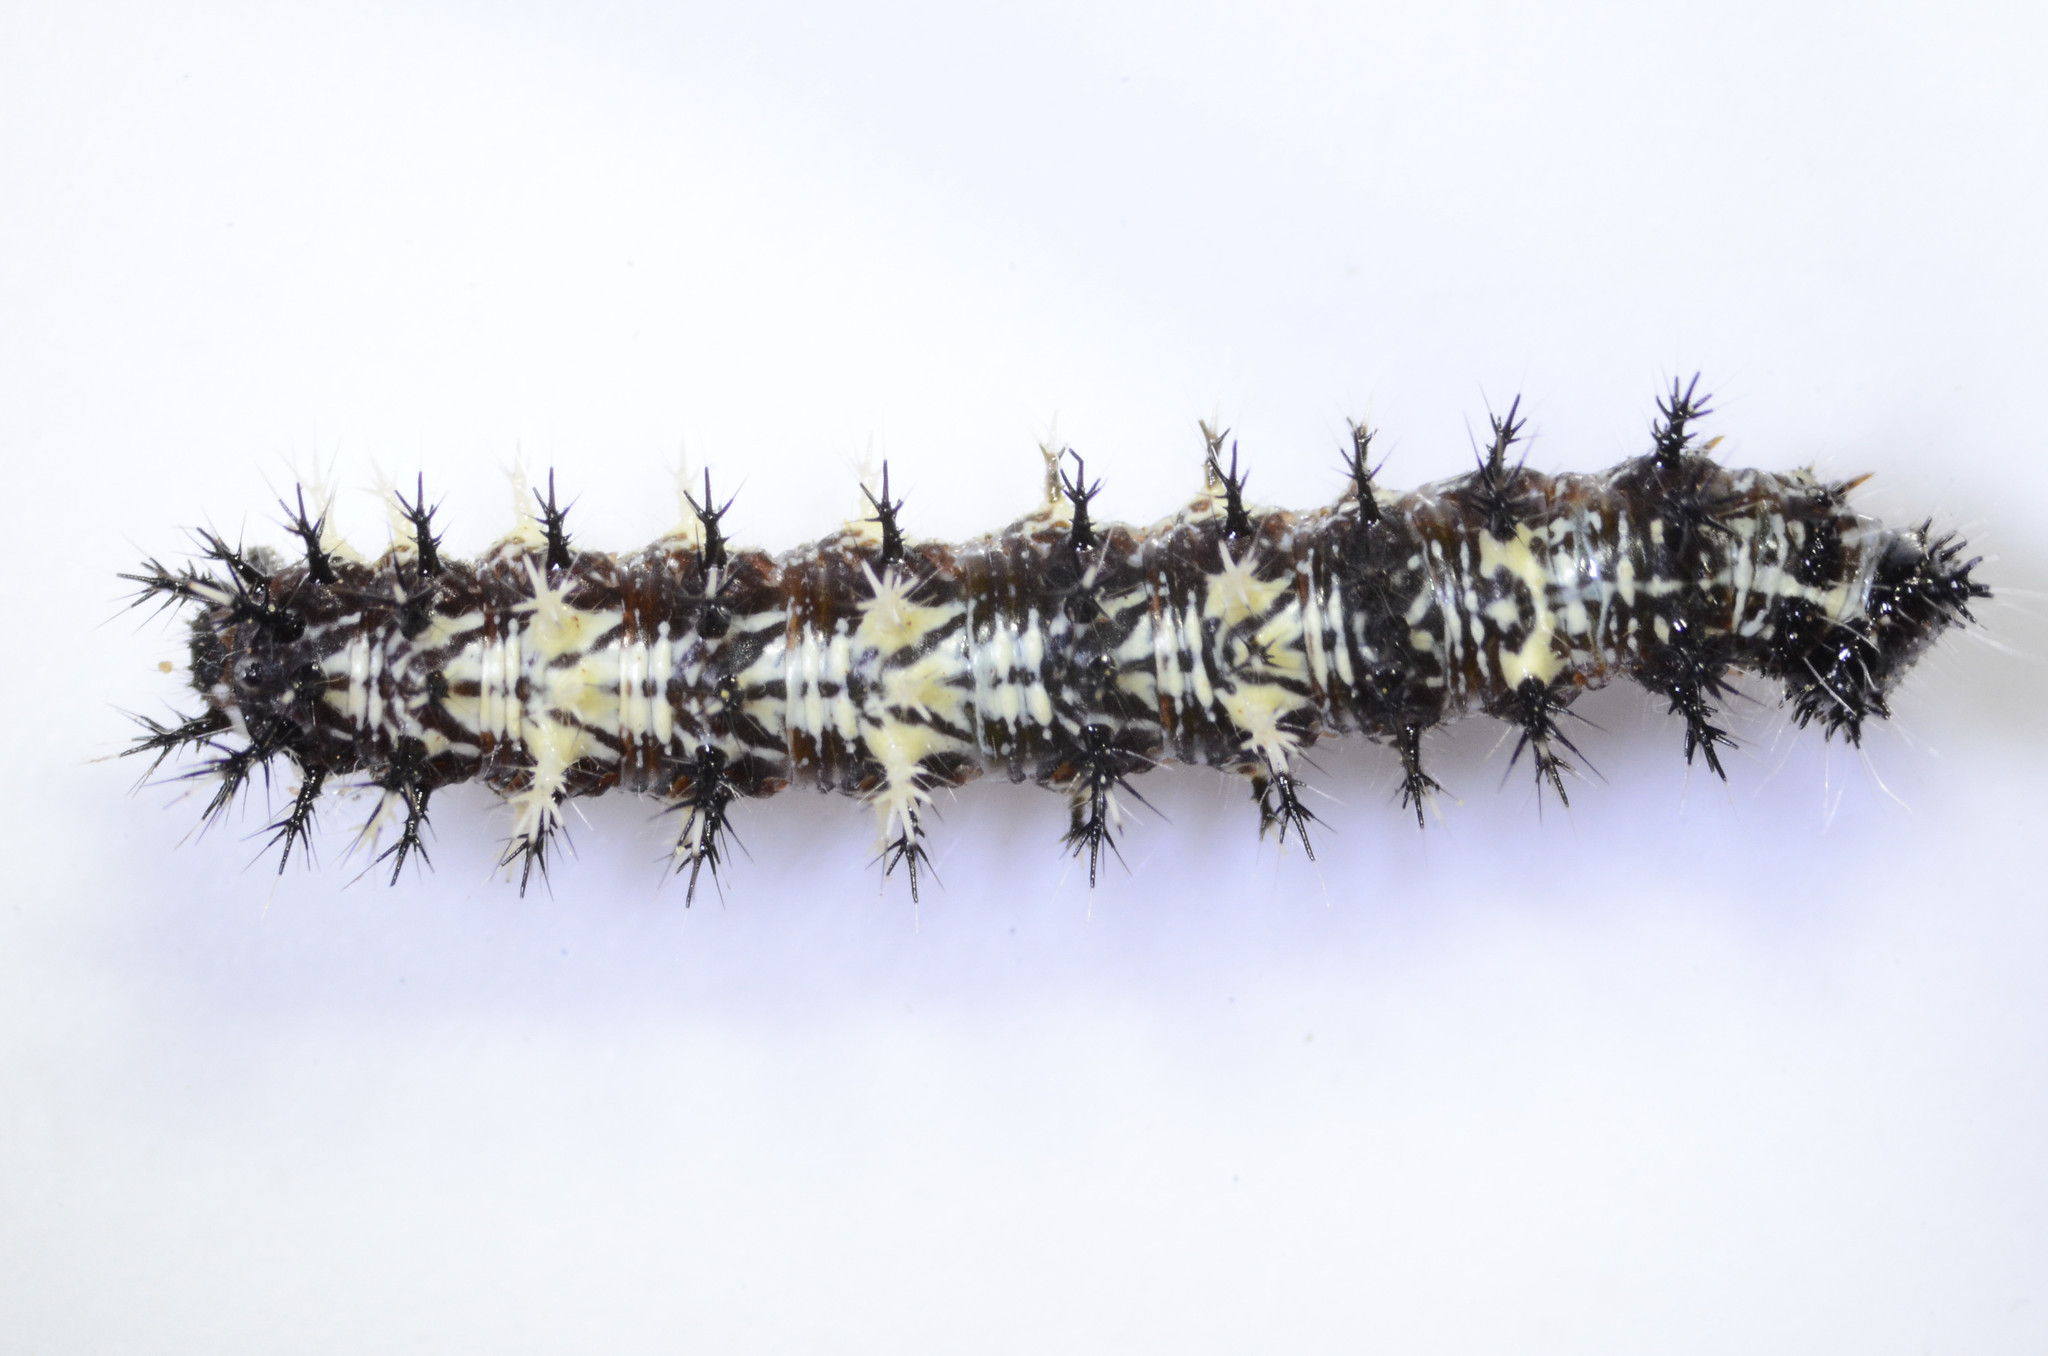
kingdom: Animalia
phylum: Arthropoda
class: Insecta
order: Lepidoptera
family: Nymphalidae
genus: Polygonia
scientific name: Polygonia satyrus
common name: Satyr angle wing
